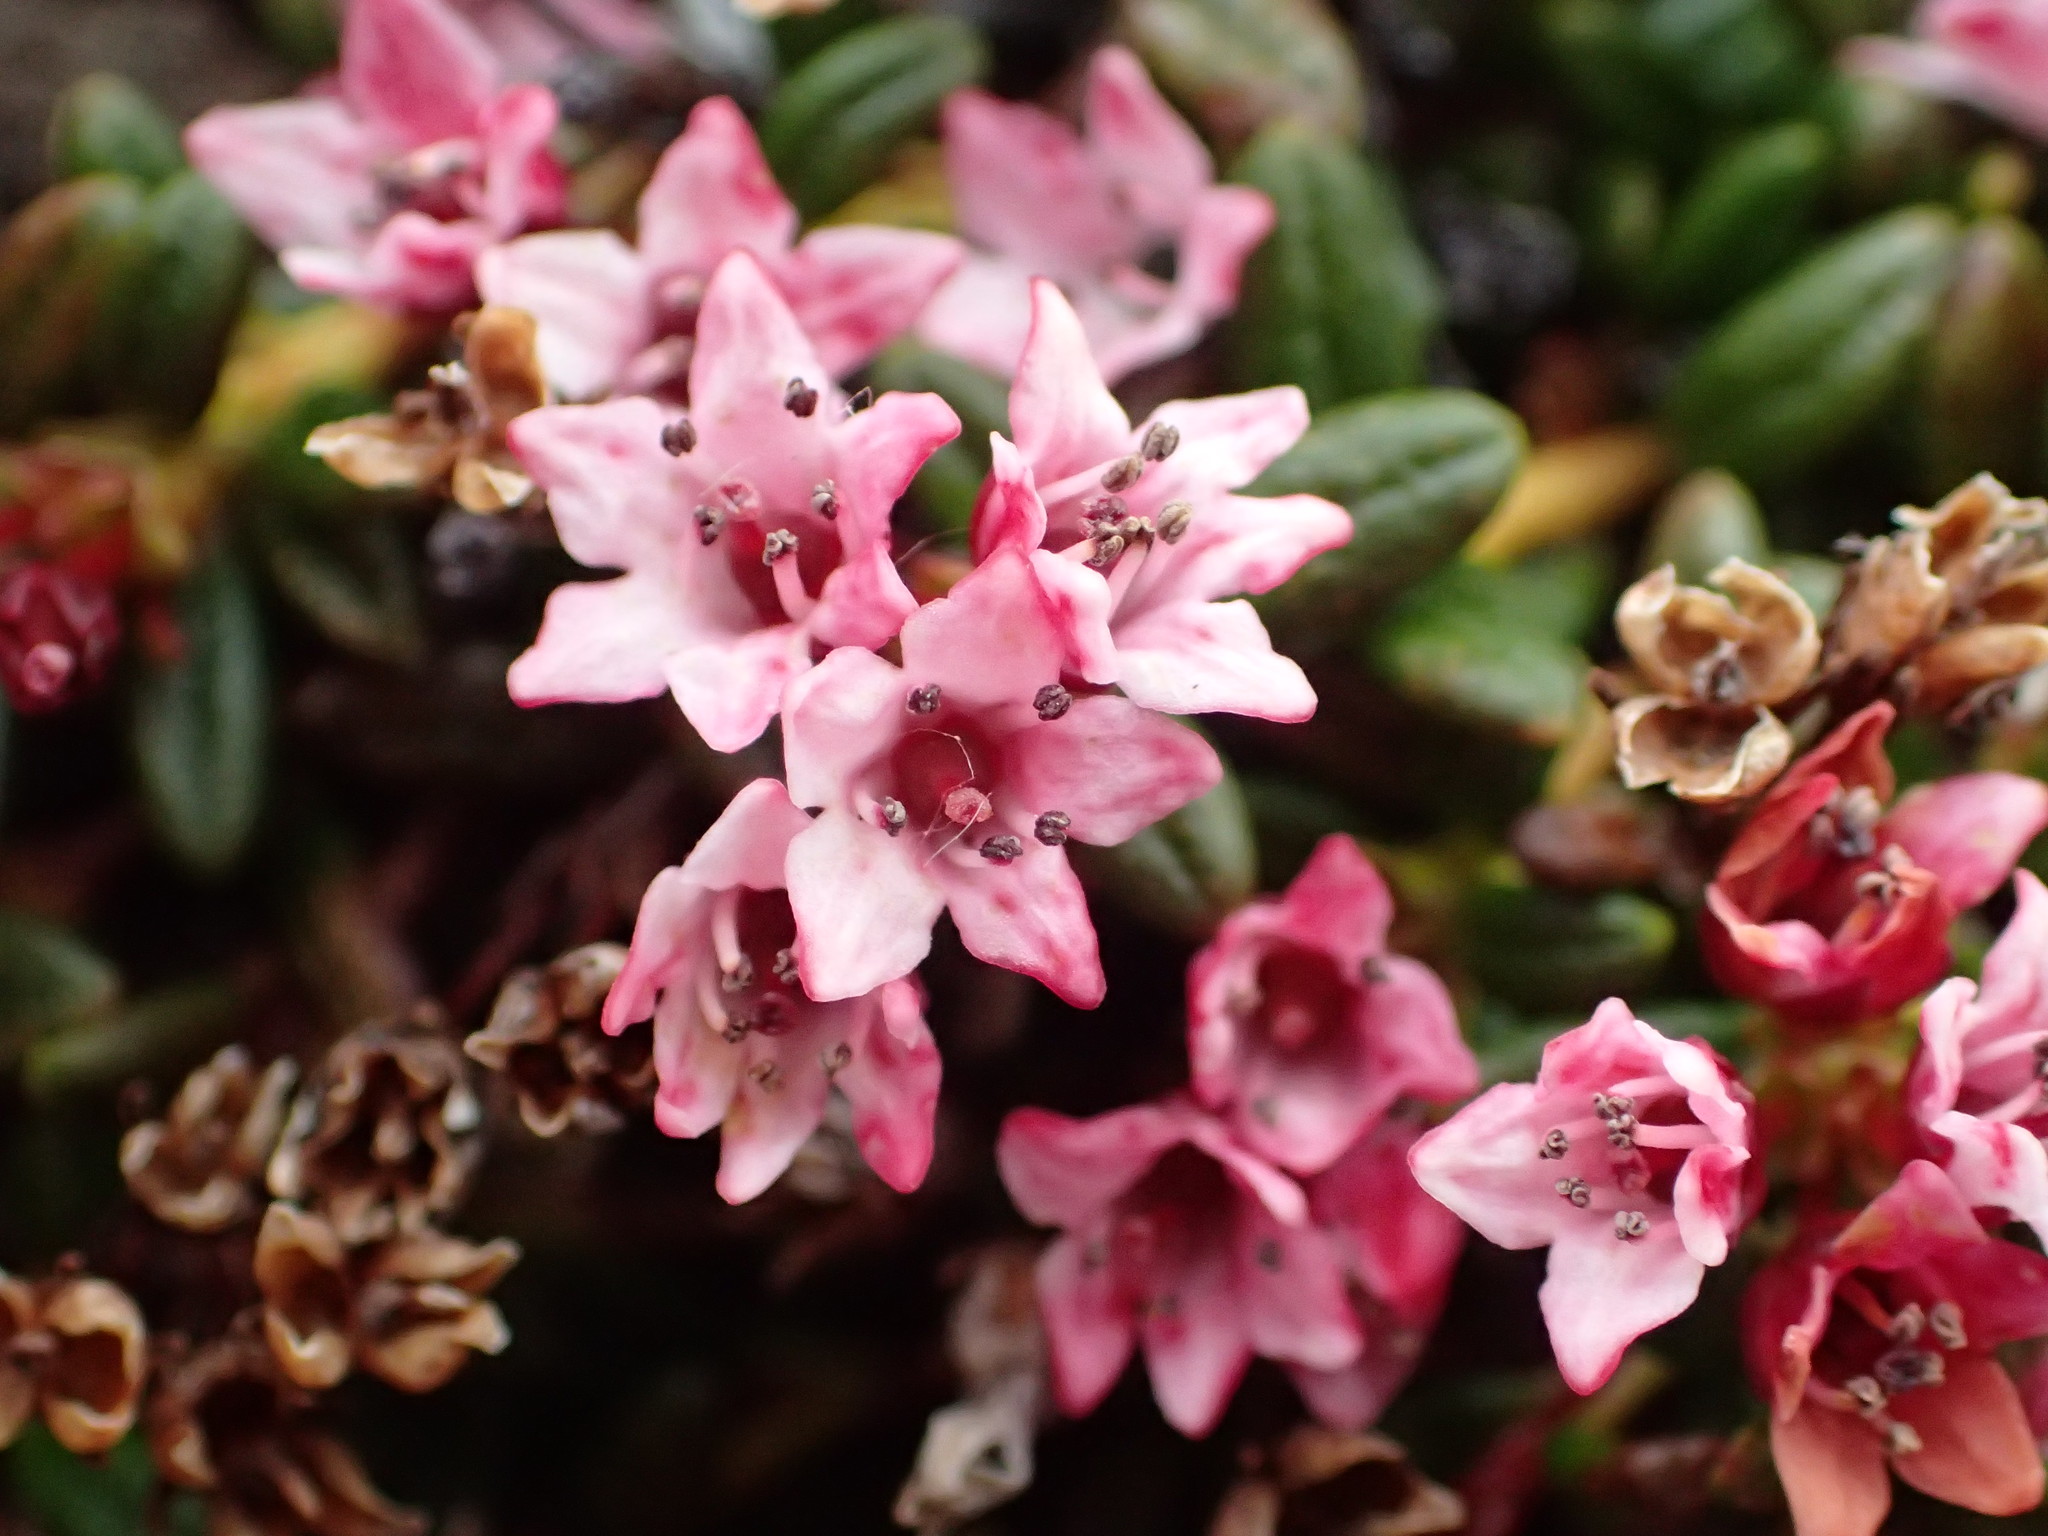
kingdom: Plantae
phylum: Tracheophyta
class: Magnoliopsida
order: Ericales
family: Ericaceae
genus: Kalmia
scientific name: Kalmia procumbens
